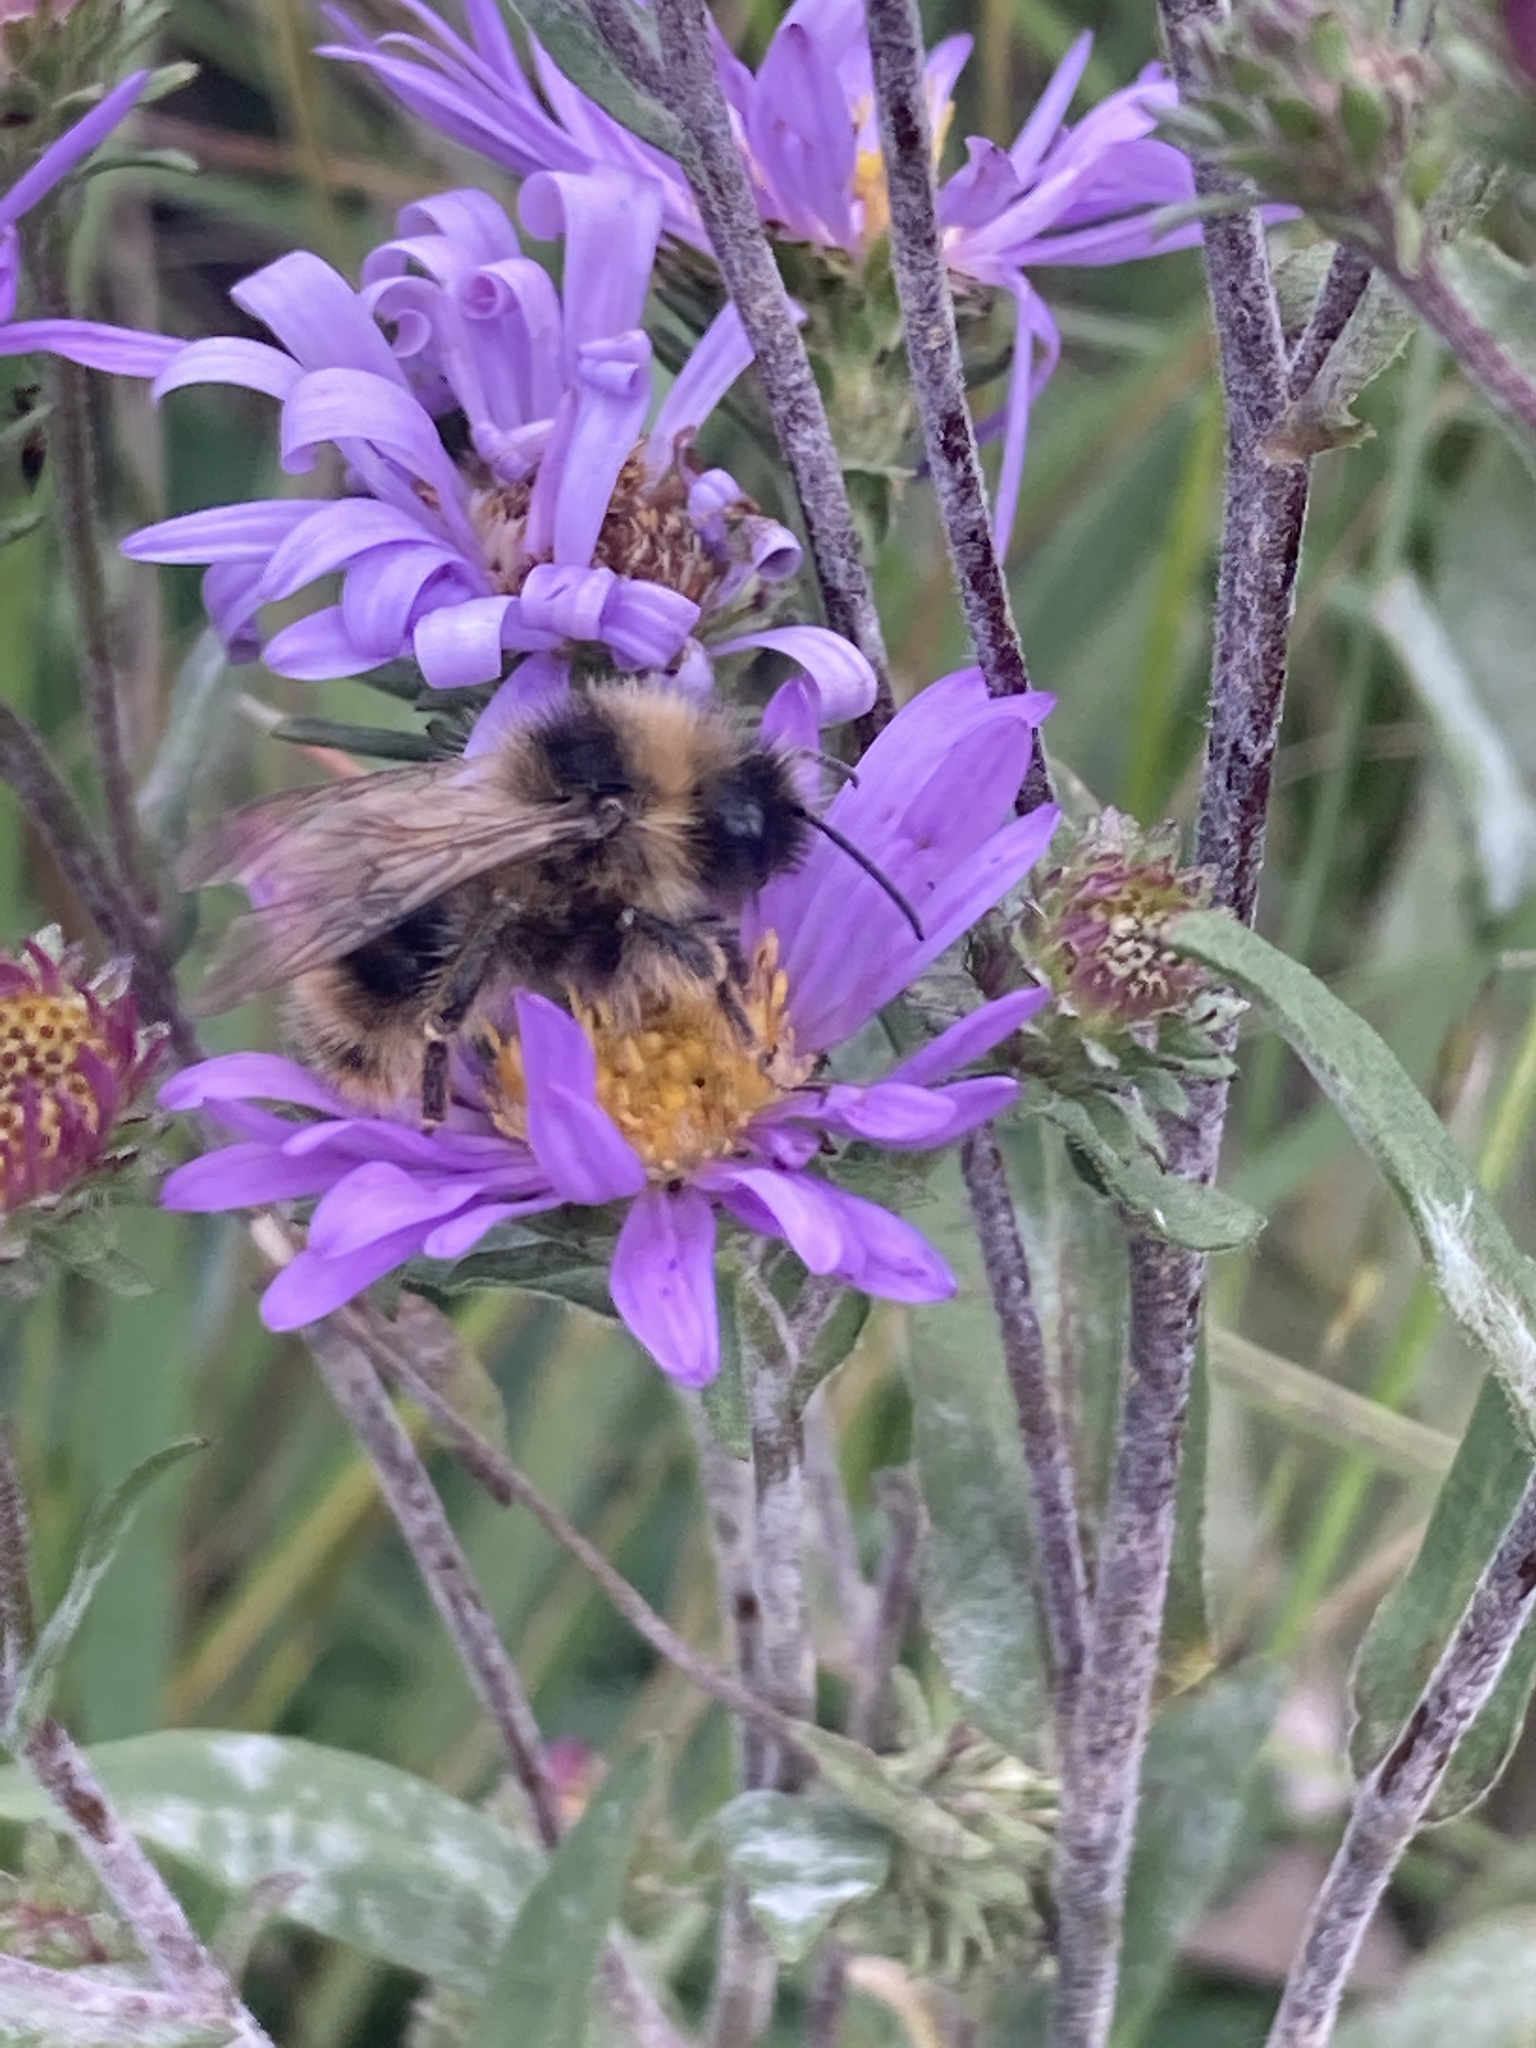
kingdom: Animalia
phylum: Arthropoda
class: Insecta
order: Hymenoptera
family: Apidae
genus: Bombus
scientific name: Bombus flavidus
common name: Fernald cuckoo bumble bee
